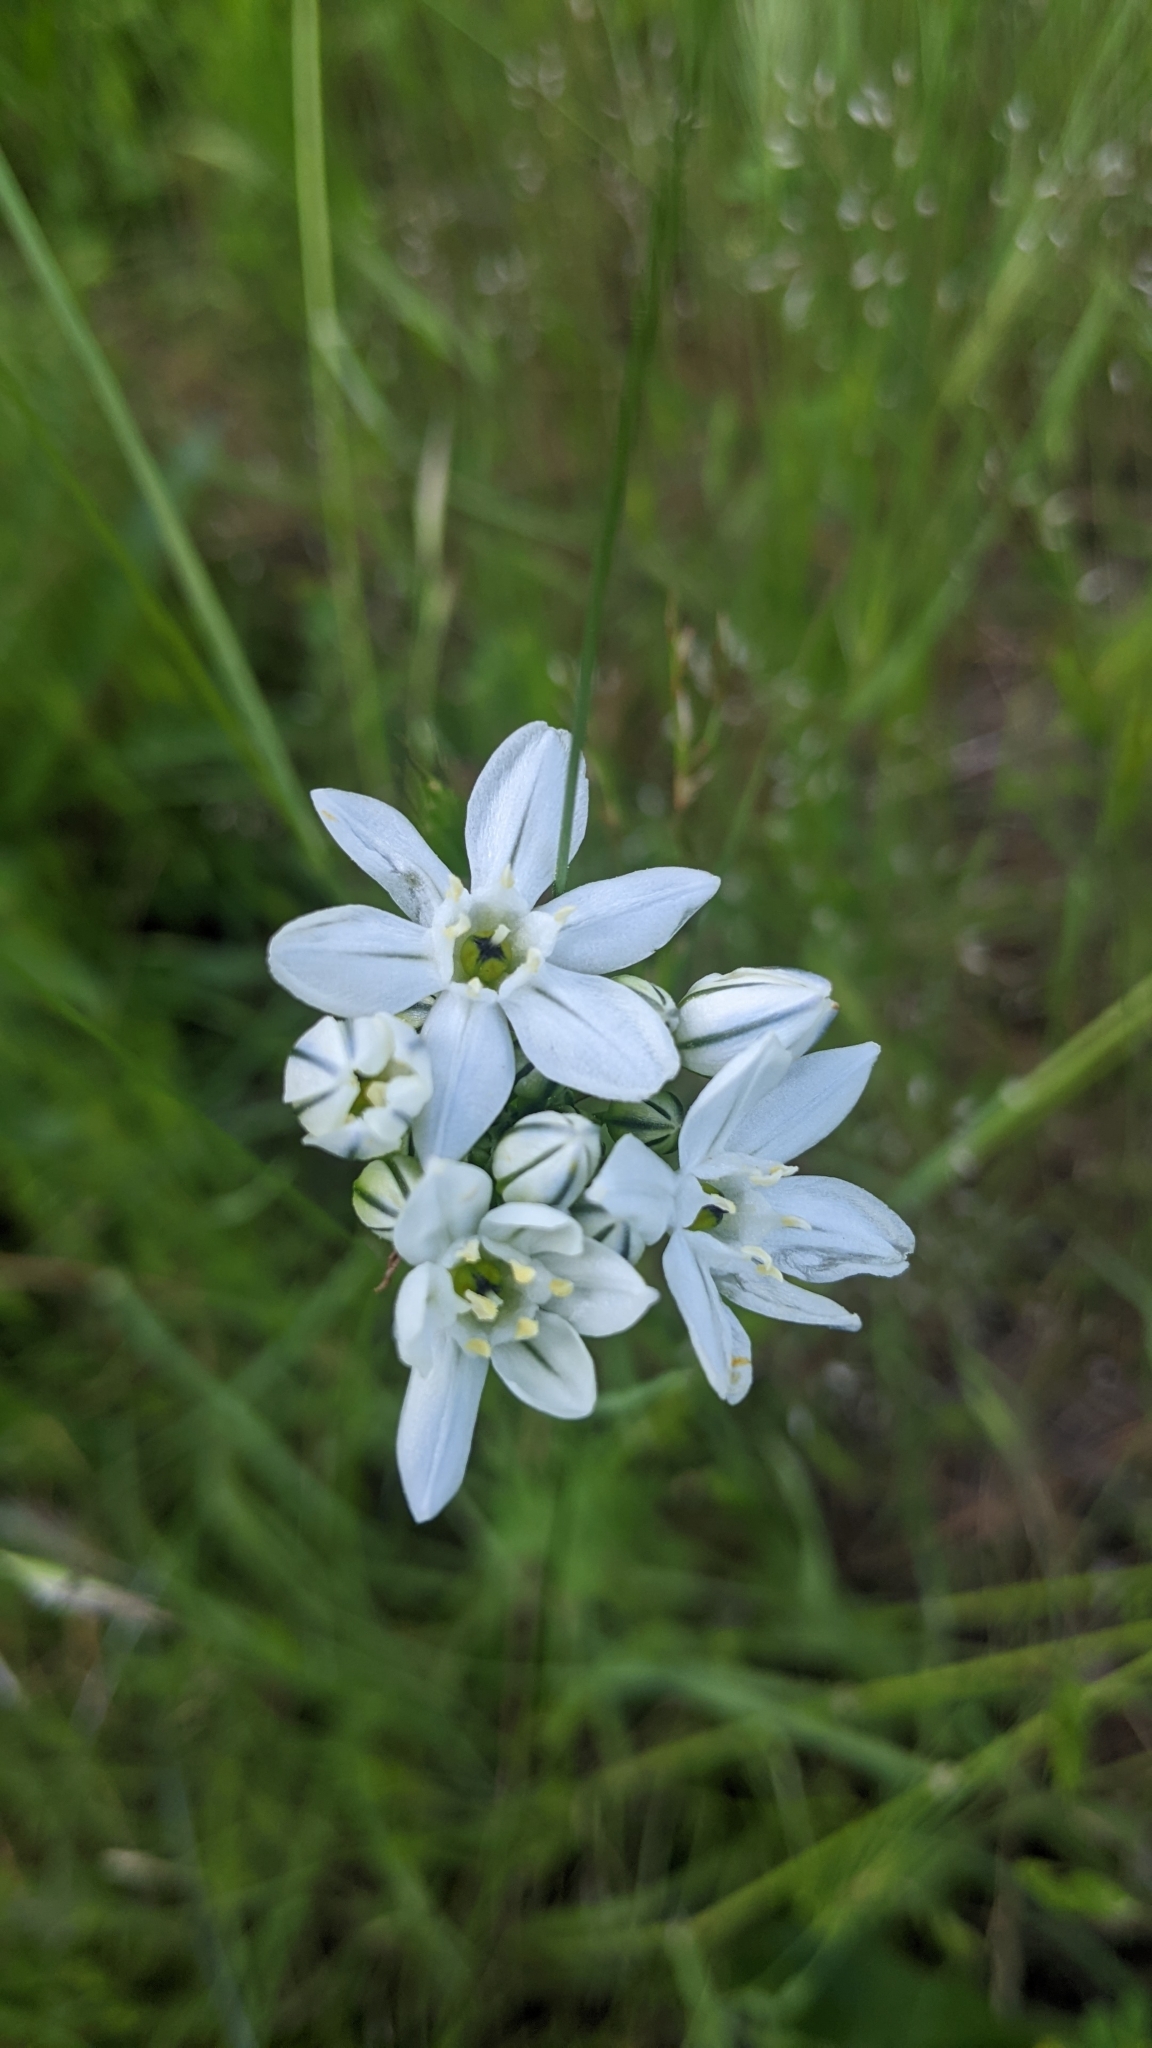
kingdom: Plantae
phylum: Tracheophyta
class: Liliopsida
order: Asparagales
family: Asparagaceae
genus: Triteleia
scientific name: Triteleia hyacinthina
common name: White brodiaea
